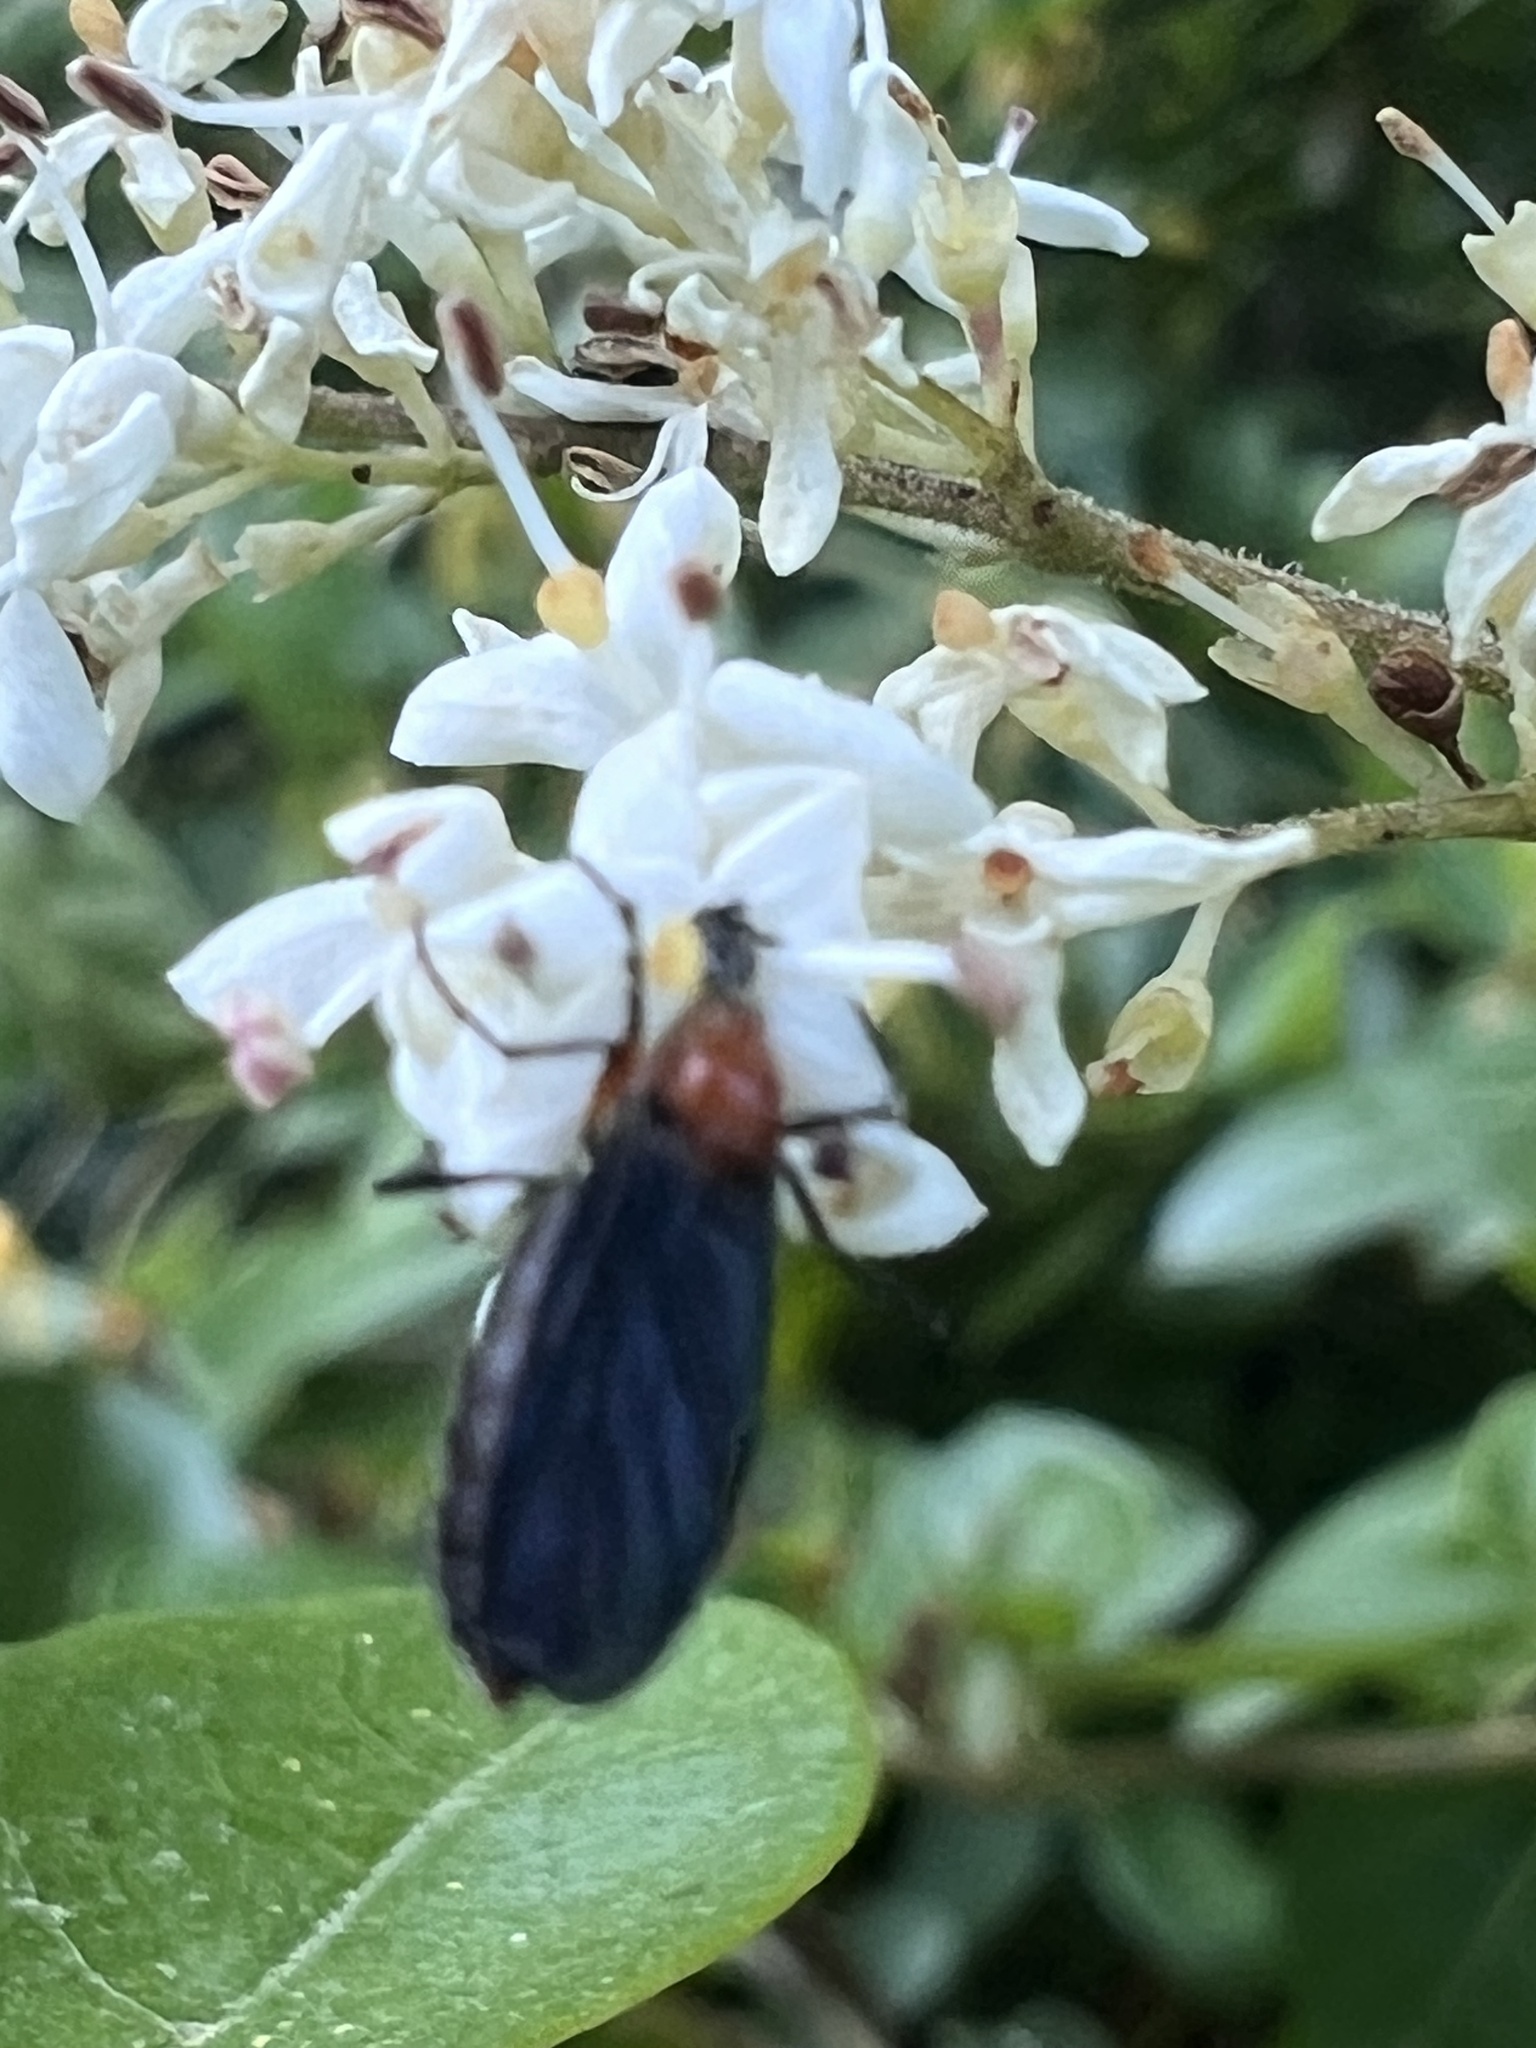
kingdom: Animalia
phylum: Arthropoda
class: Insecta
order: Diptera
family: Bibionidae
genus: Dilophus
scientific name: Dilophus spinipes
